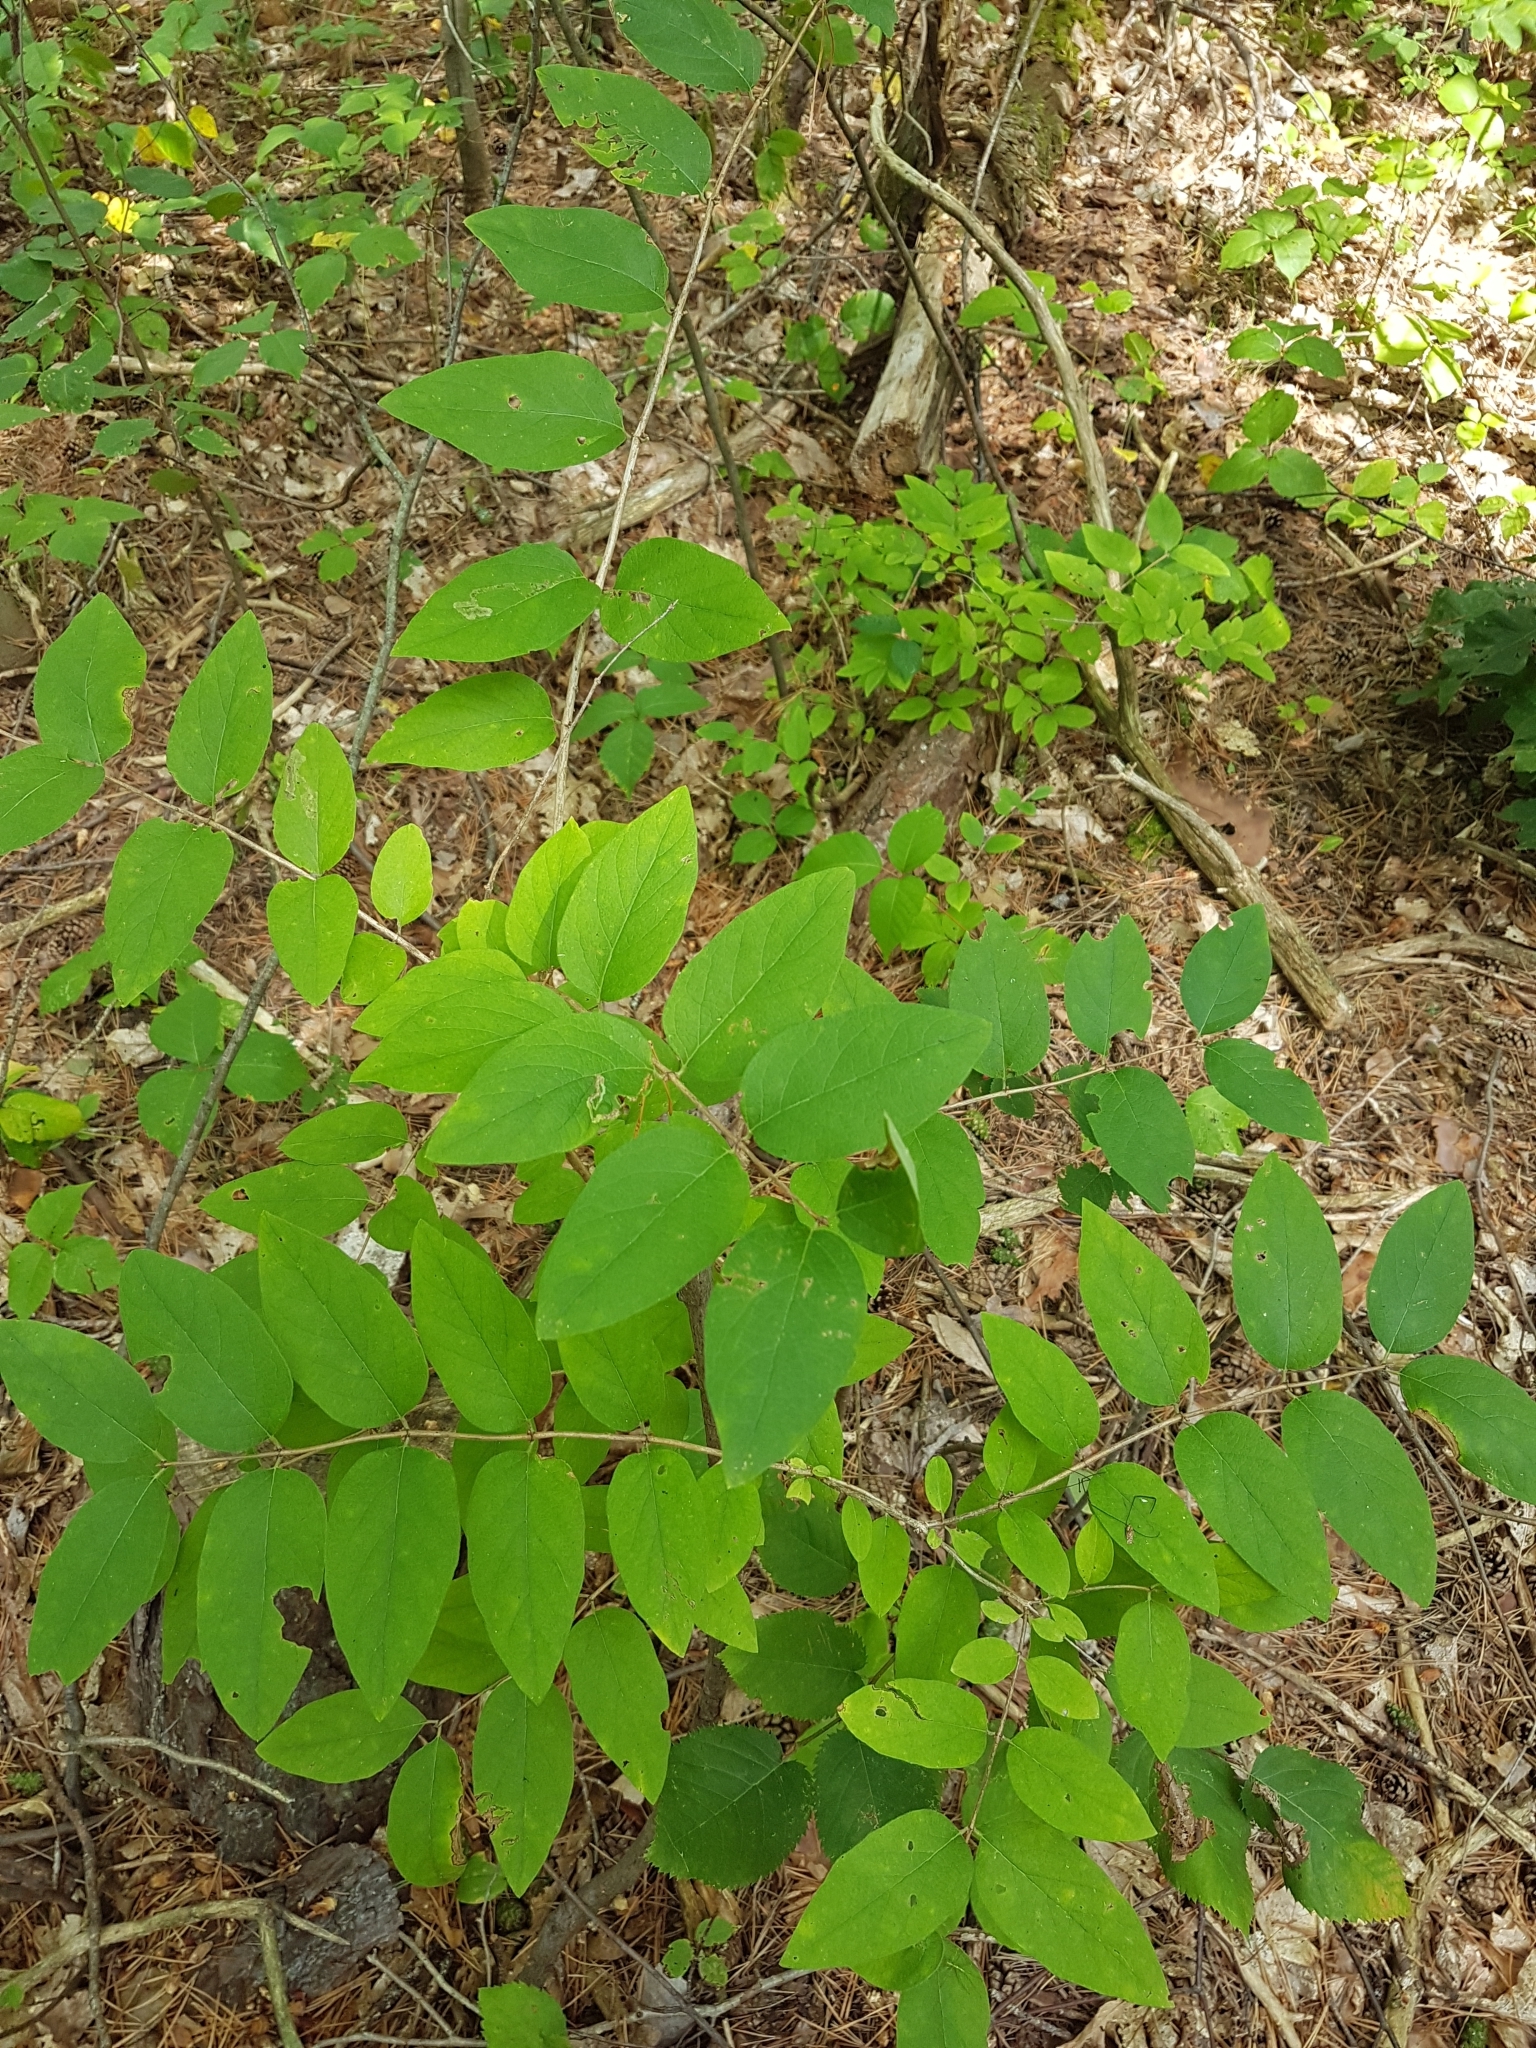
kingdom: Plantae
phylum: Tracheophyta
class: Magnoliopsida
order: Dipsacales
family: Caprifoliaceae
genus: Lonicera
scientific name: Lonicera
